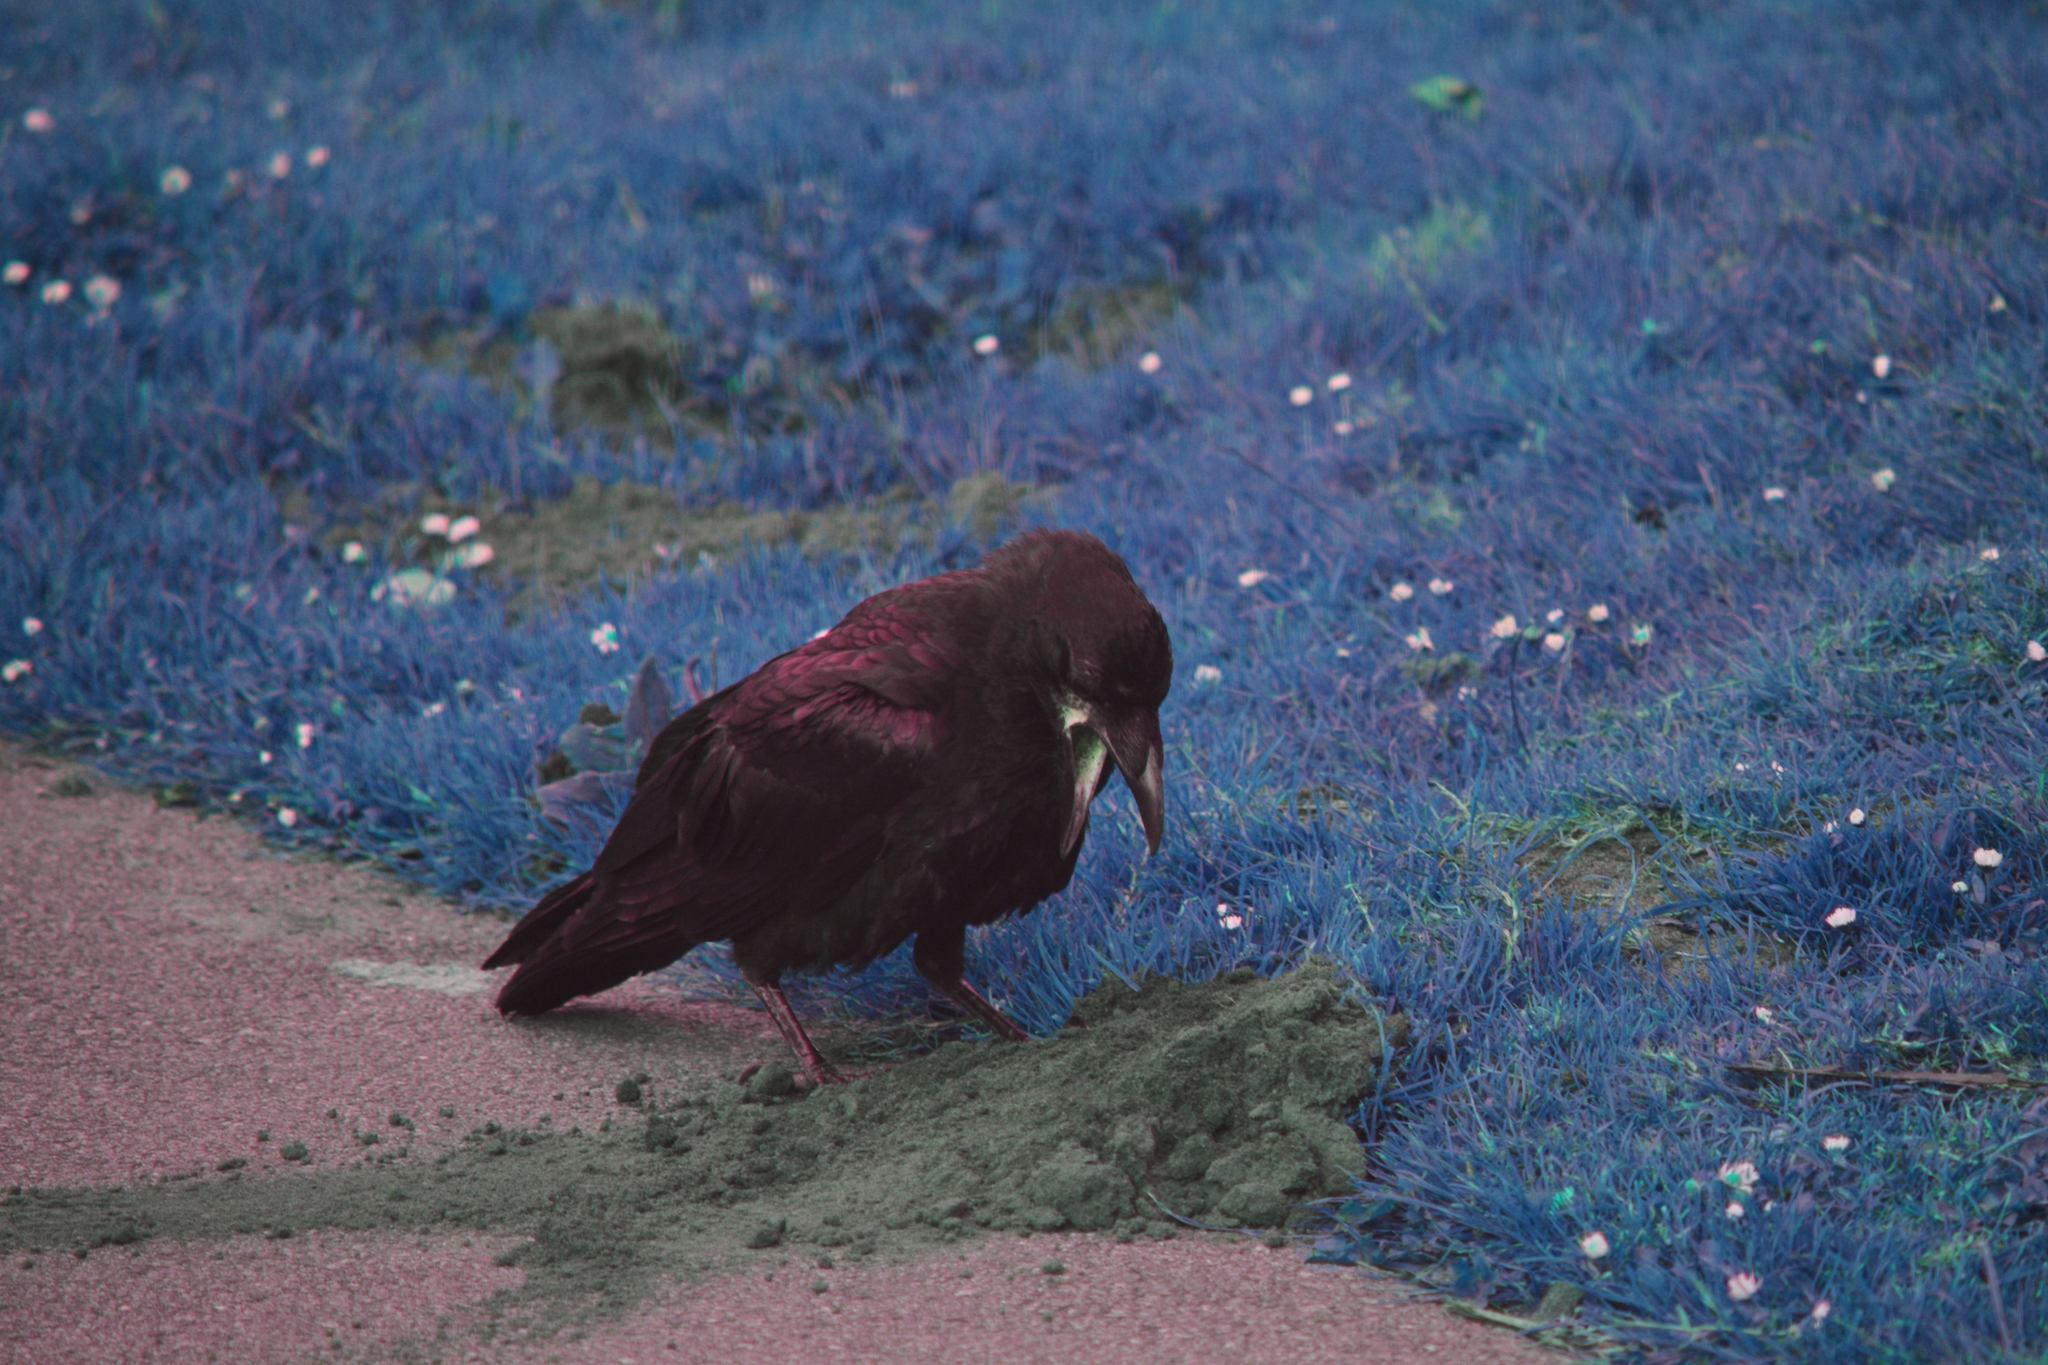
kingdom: Animalia
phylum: Chordata
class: Aves
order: Passeriformes
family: Corvidae
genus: Corvus
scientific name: Corvus corax
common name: Common raven
